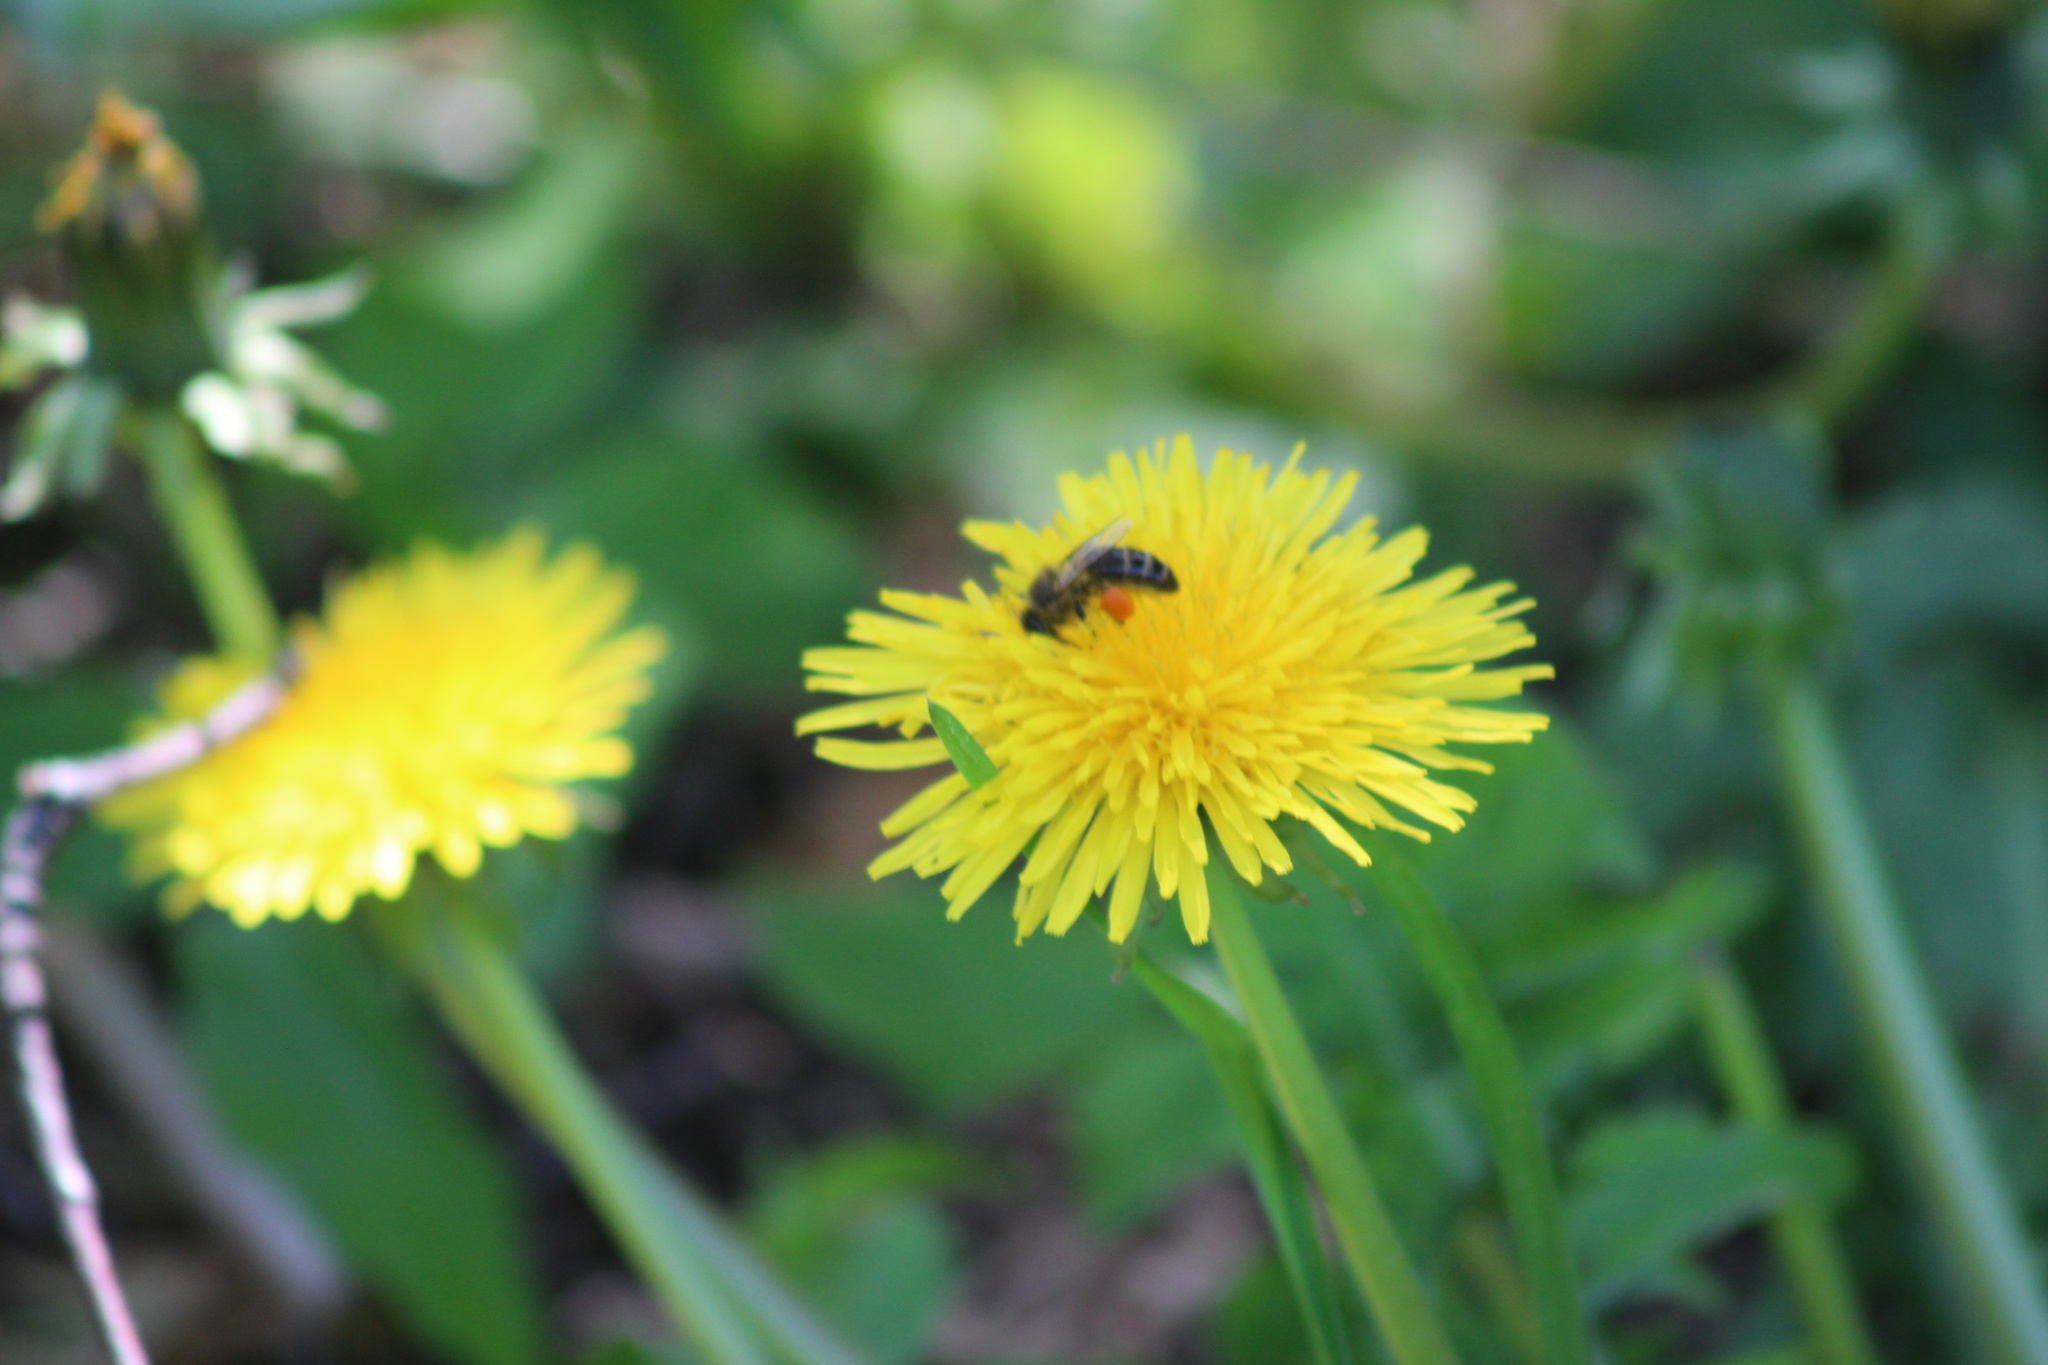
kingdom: Animalia
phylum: Arthropoda
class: Insecta
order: Hymenoptera
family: Apidae
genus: Apis
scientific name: Apis mellifera
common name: Honey bee
